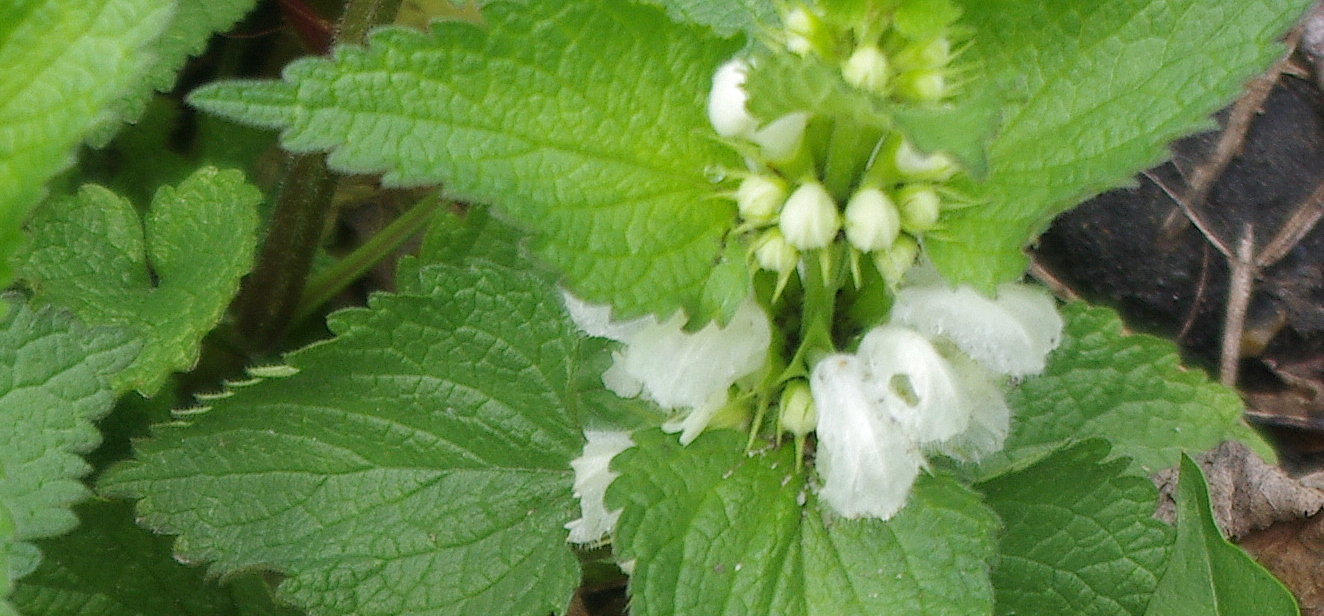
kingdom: Plantae
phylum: Tracheophyta
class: Magnoliopsida
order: Lamiales
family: Lamiaceae
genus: Lamium
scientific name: Lamium album
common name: White dead-nettle
